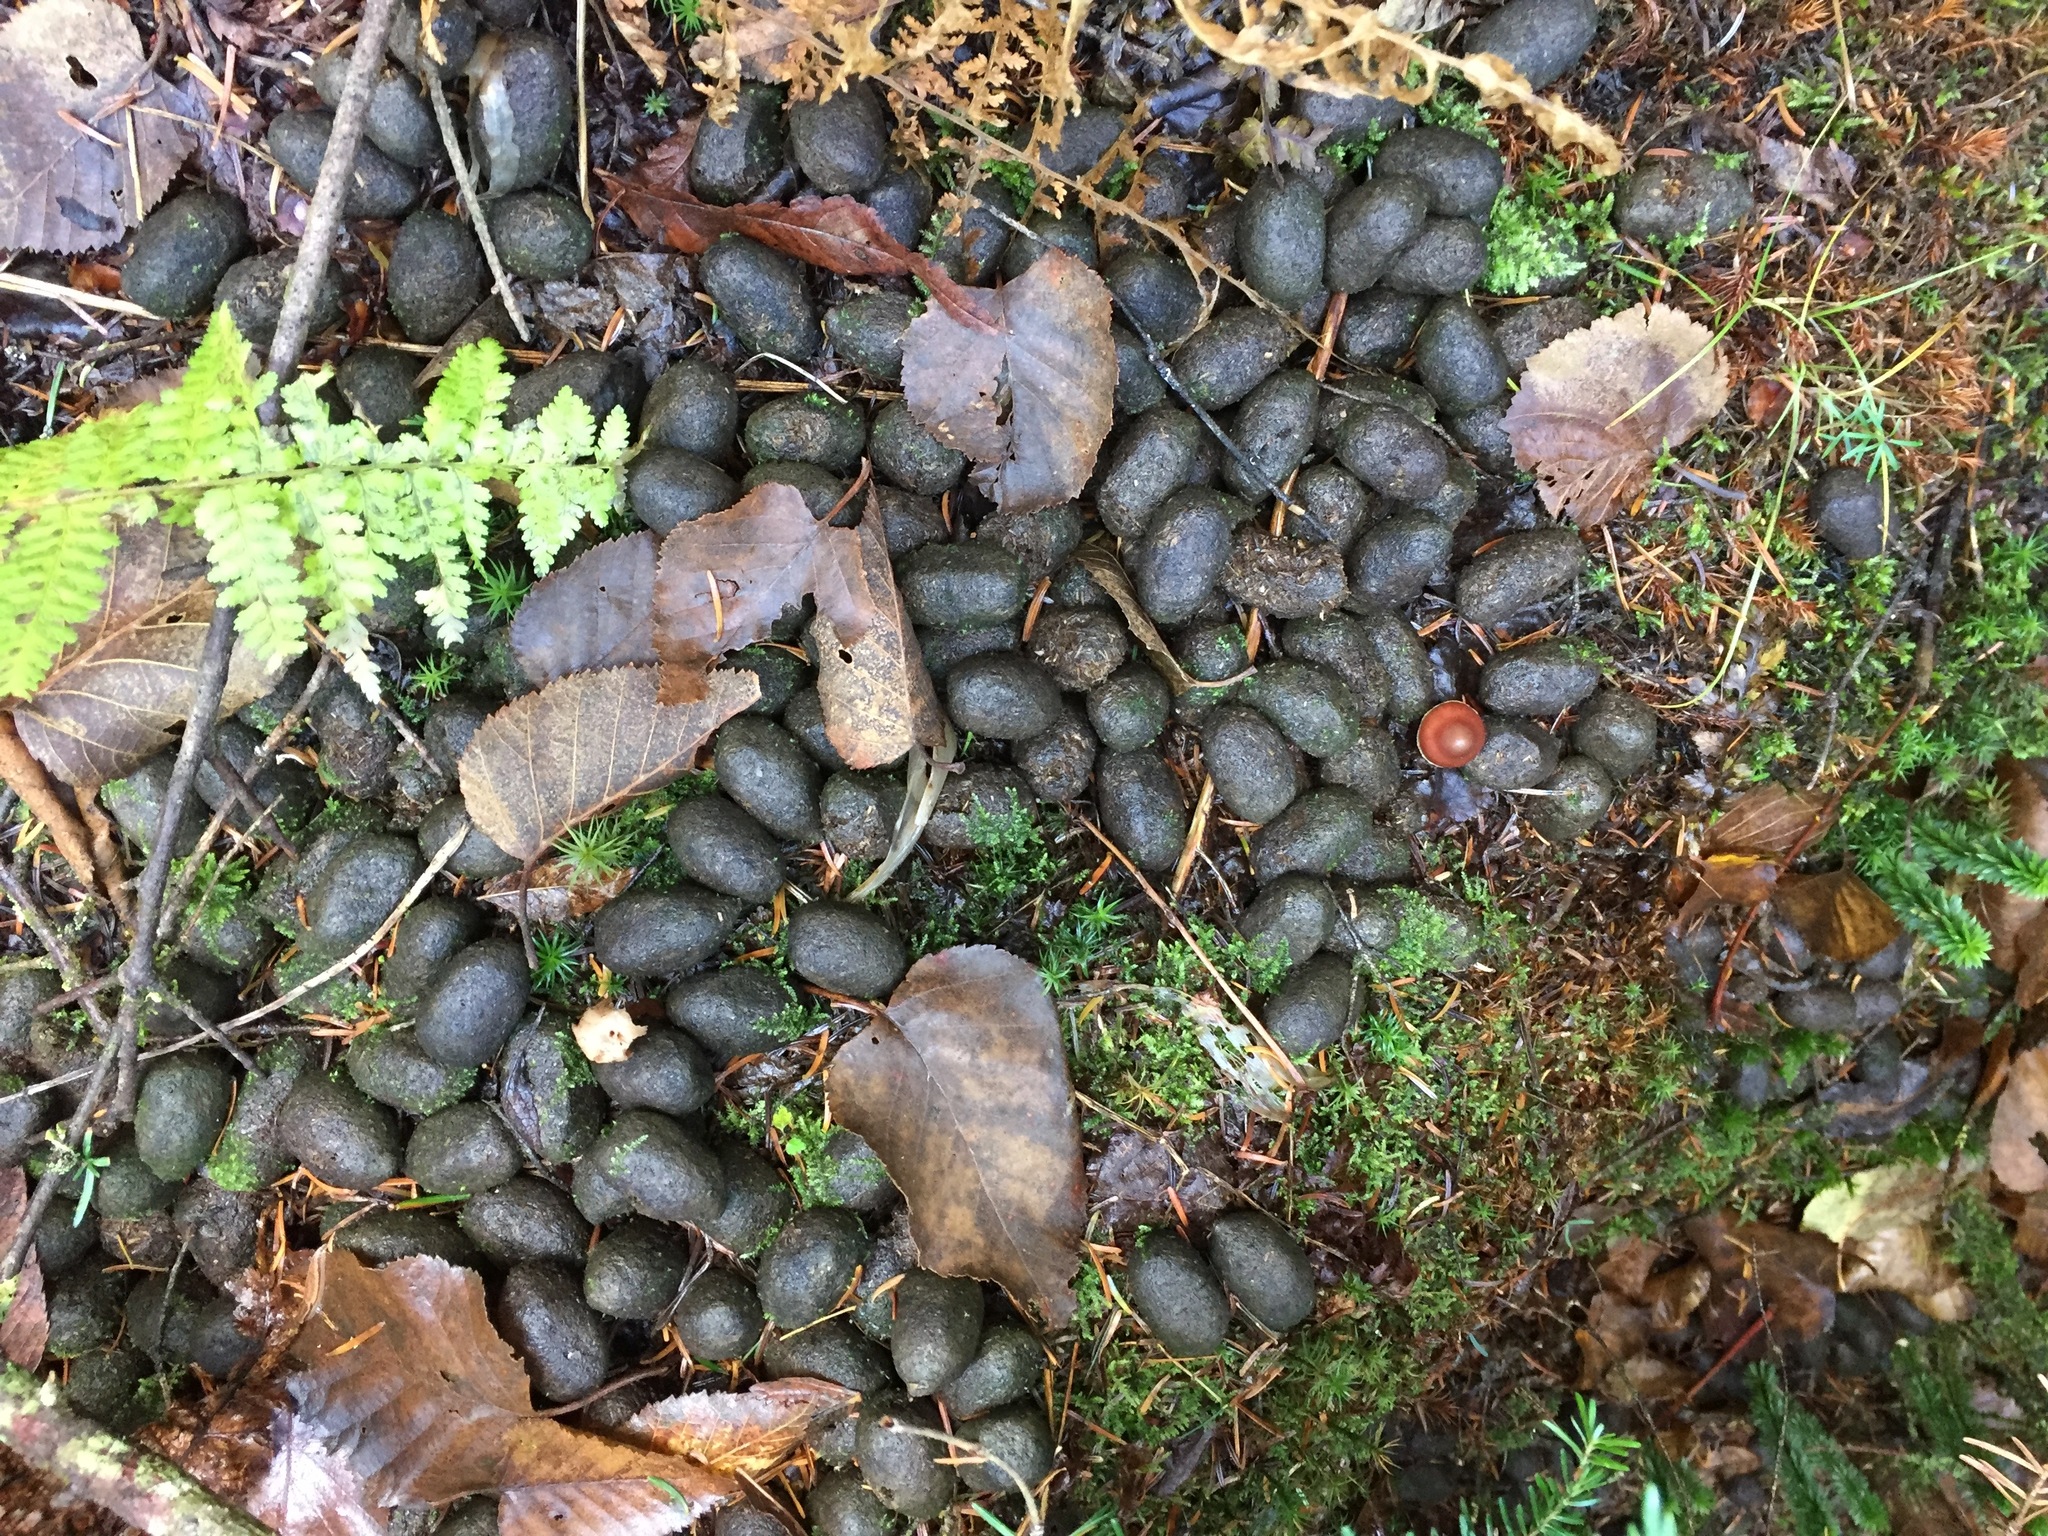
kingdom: Animalia
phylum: Chordata
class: Mammalia
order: Artiodactyla
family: Cervidae
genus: Alces
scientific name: Alces alces
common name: Moose
